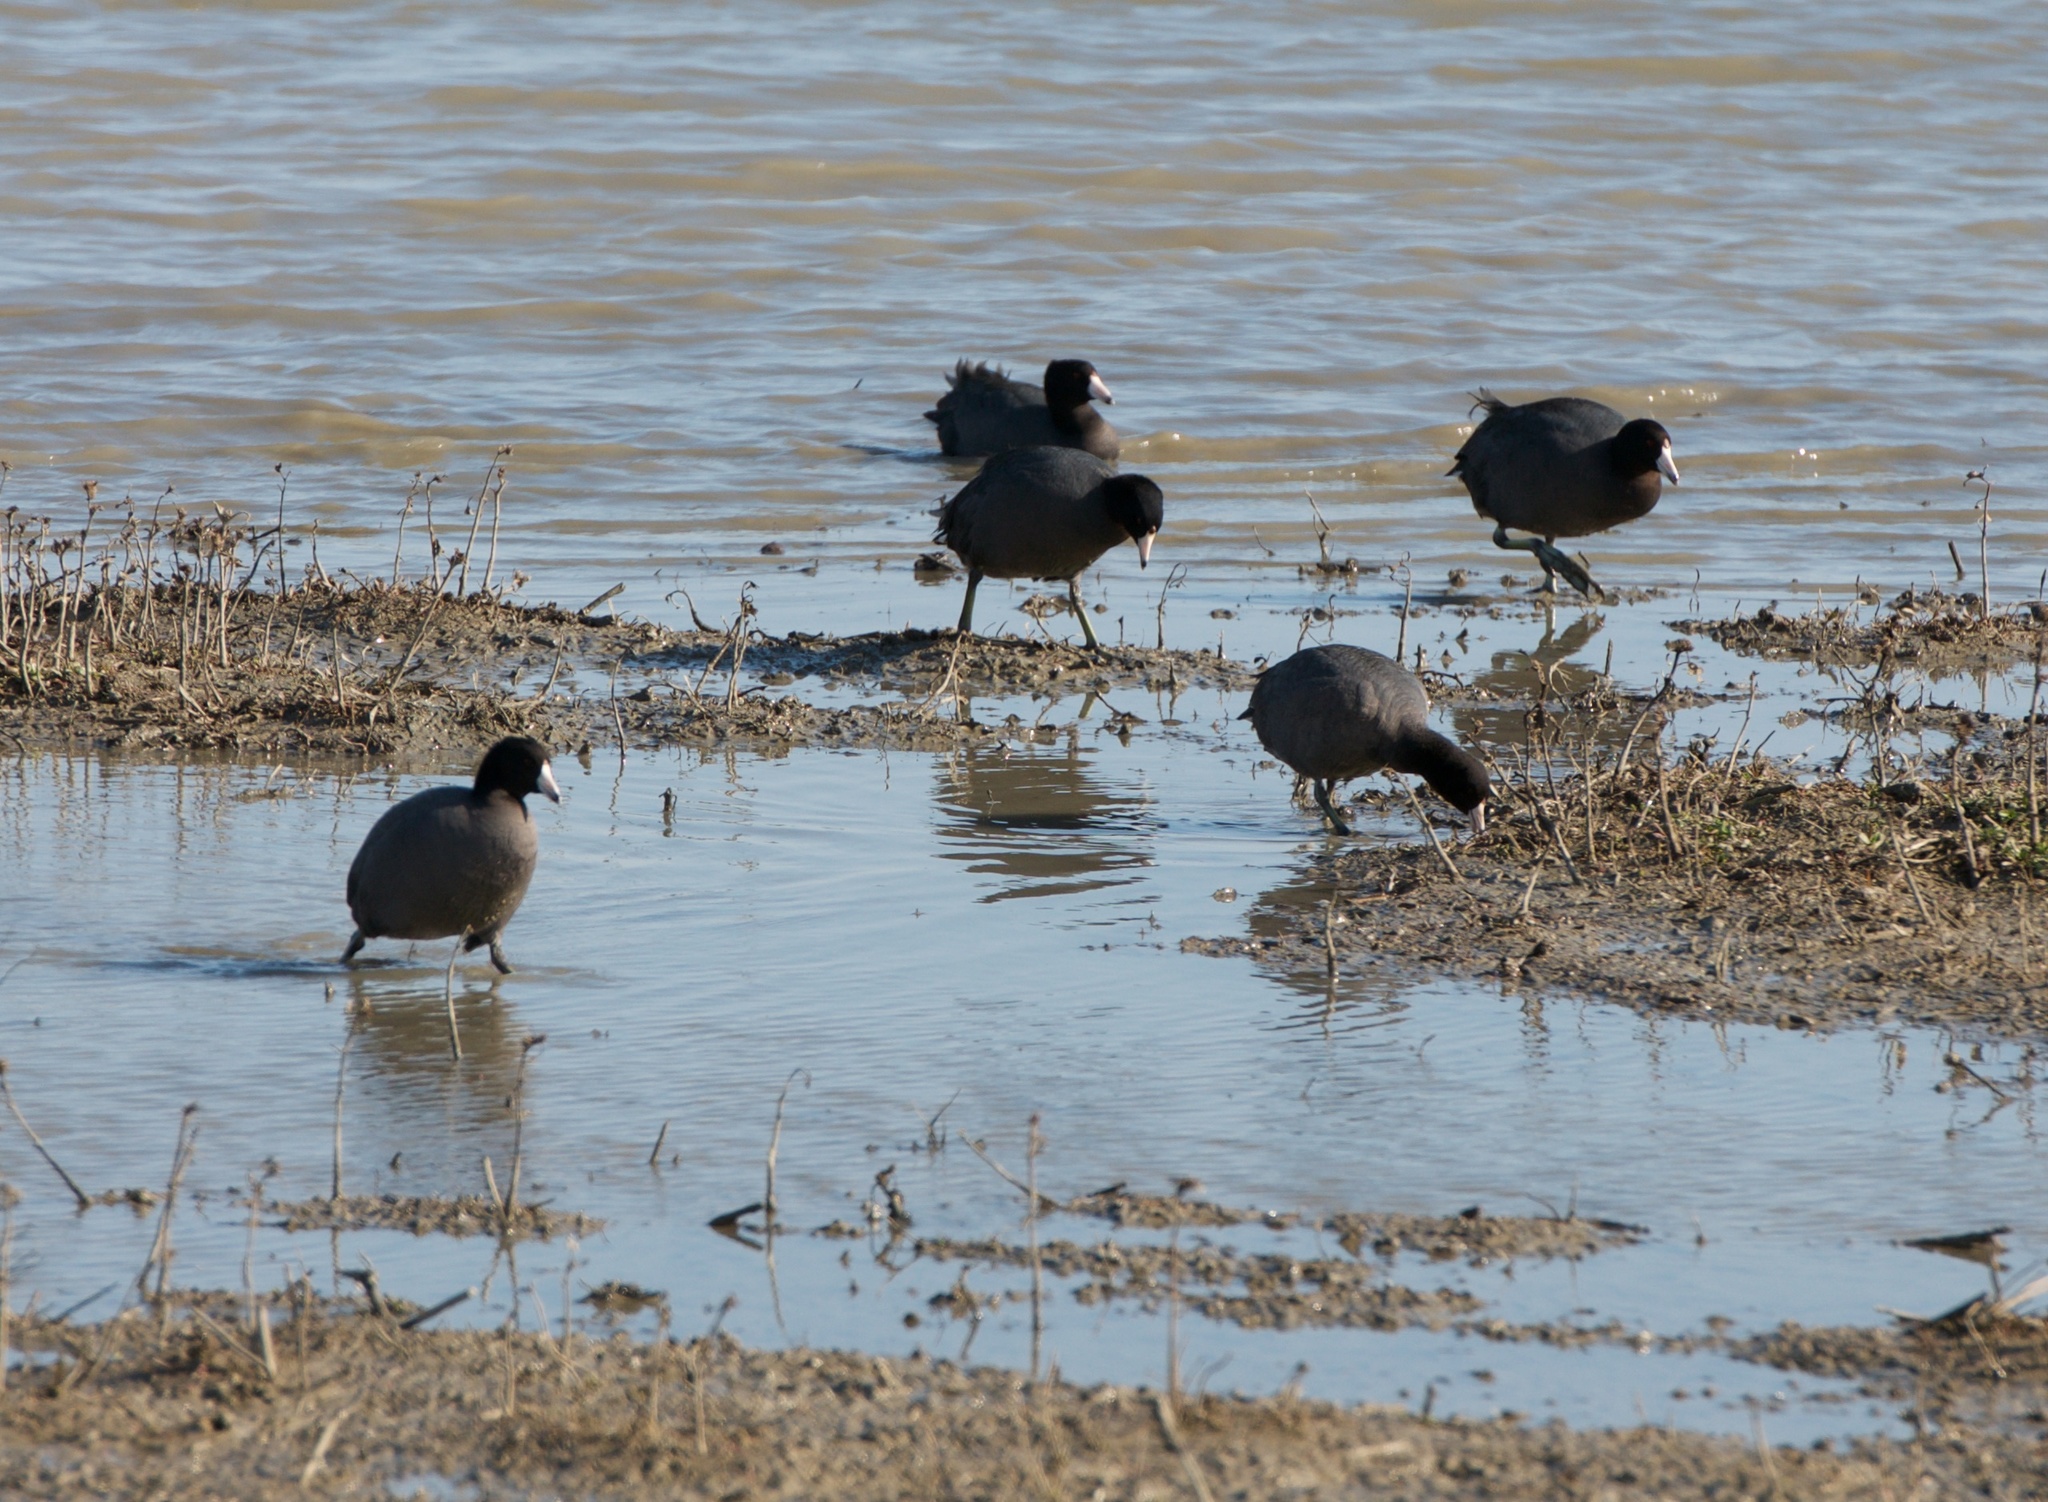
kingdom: Animalia
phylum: Chordata
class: Aves
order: Gruiformes
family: Rallidae
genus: Fulica
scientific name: Fulica americana
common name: American coot
